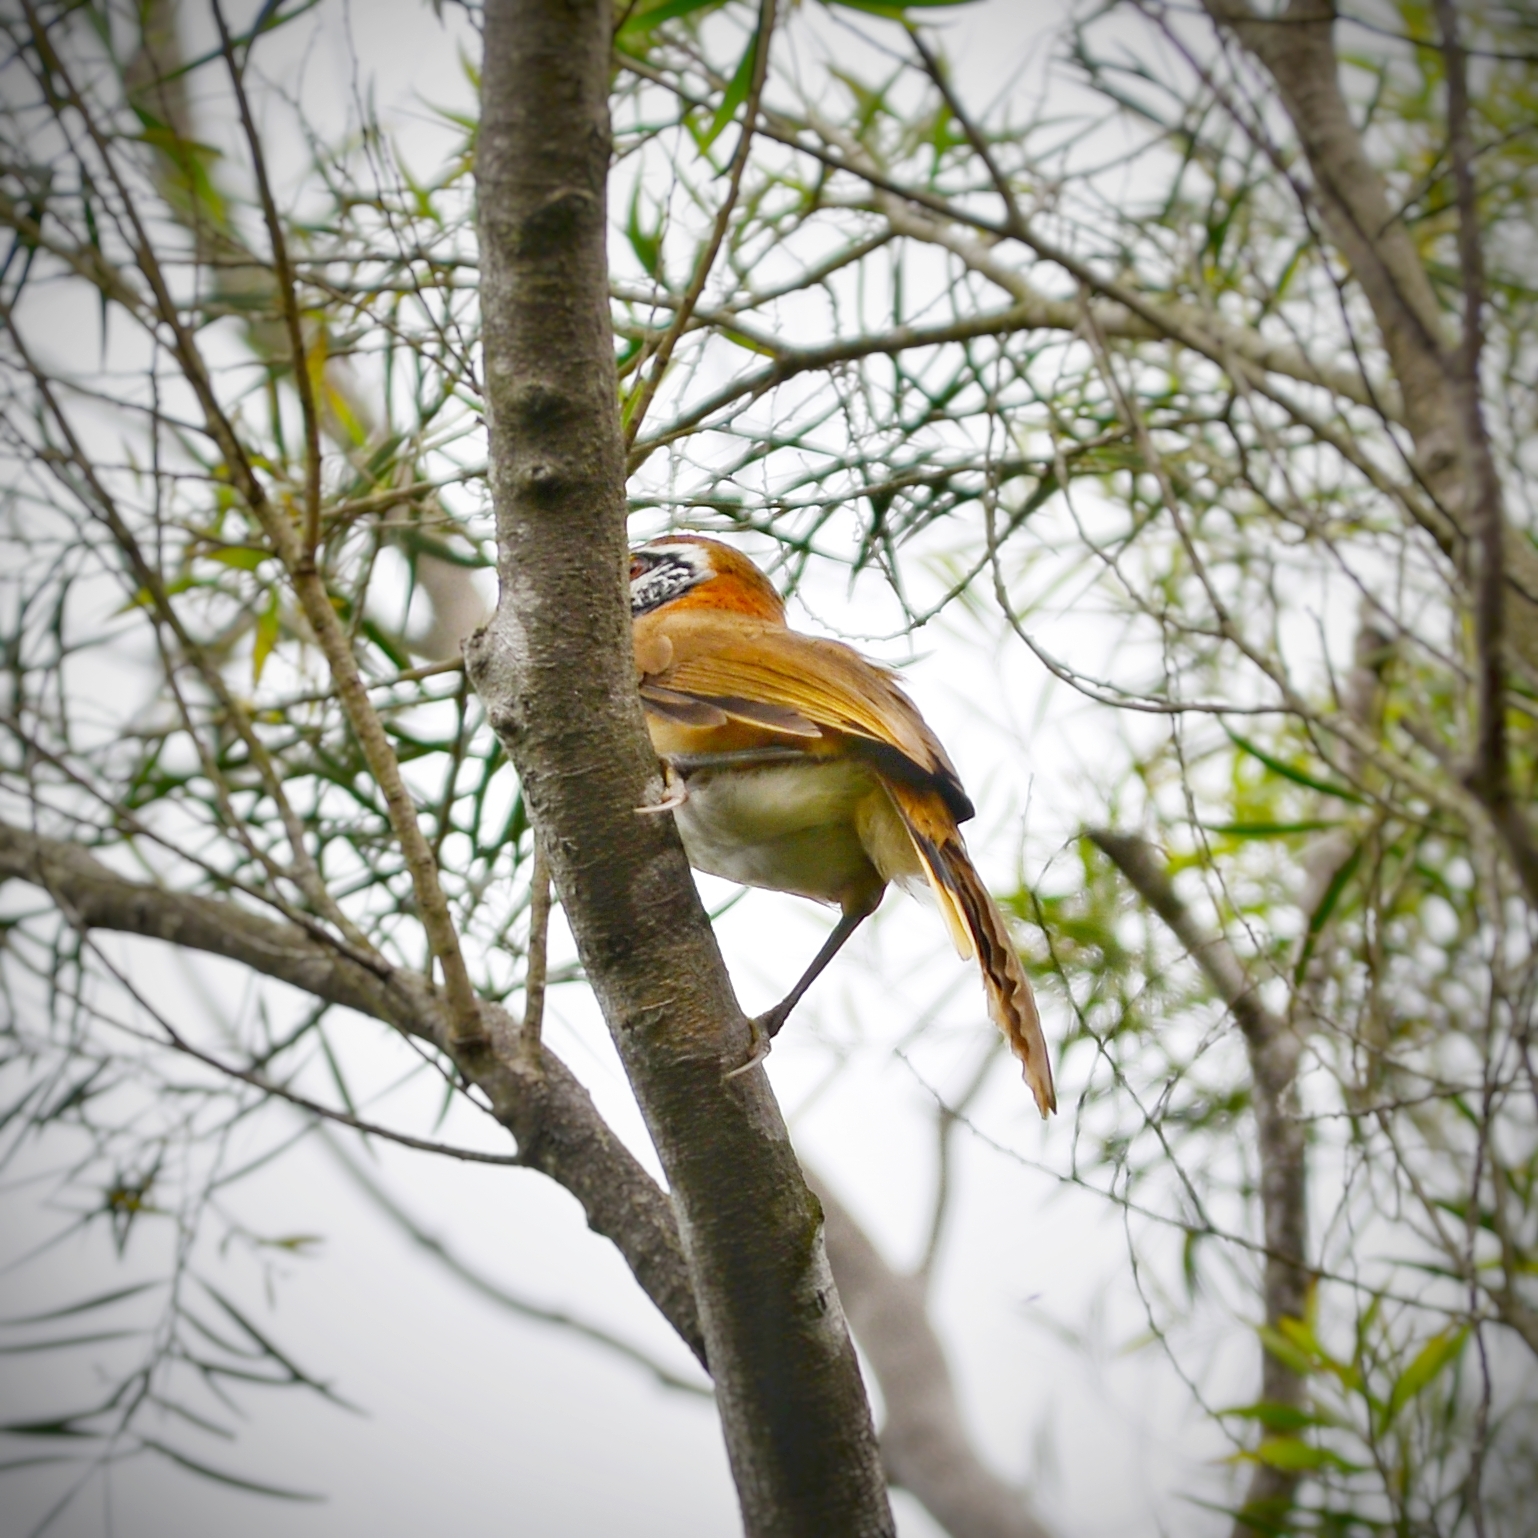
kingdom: Animalia
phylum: Chordata
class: Aves
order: Passeriformes
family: Leiothrichidae
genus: Garrulax
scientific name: Garrulax pectoralis
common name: Greater necklaced laughingthrush
